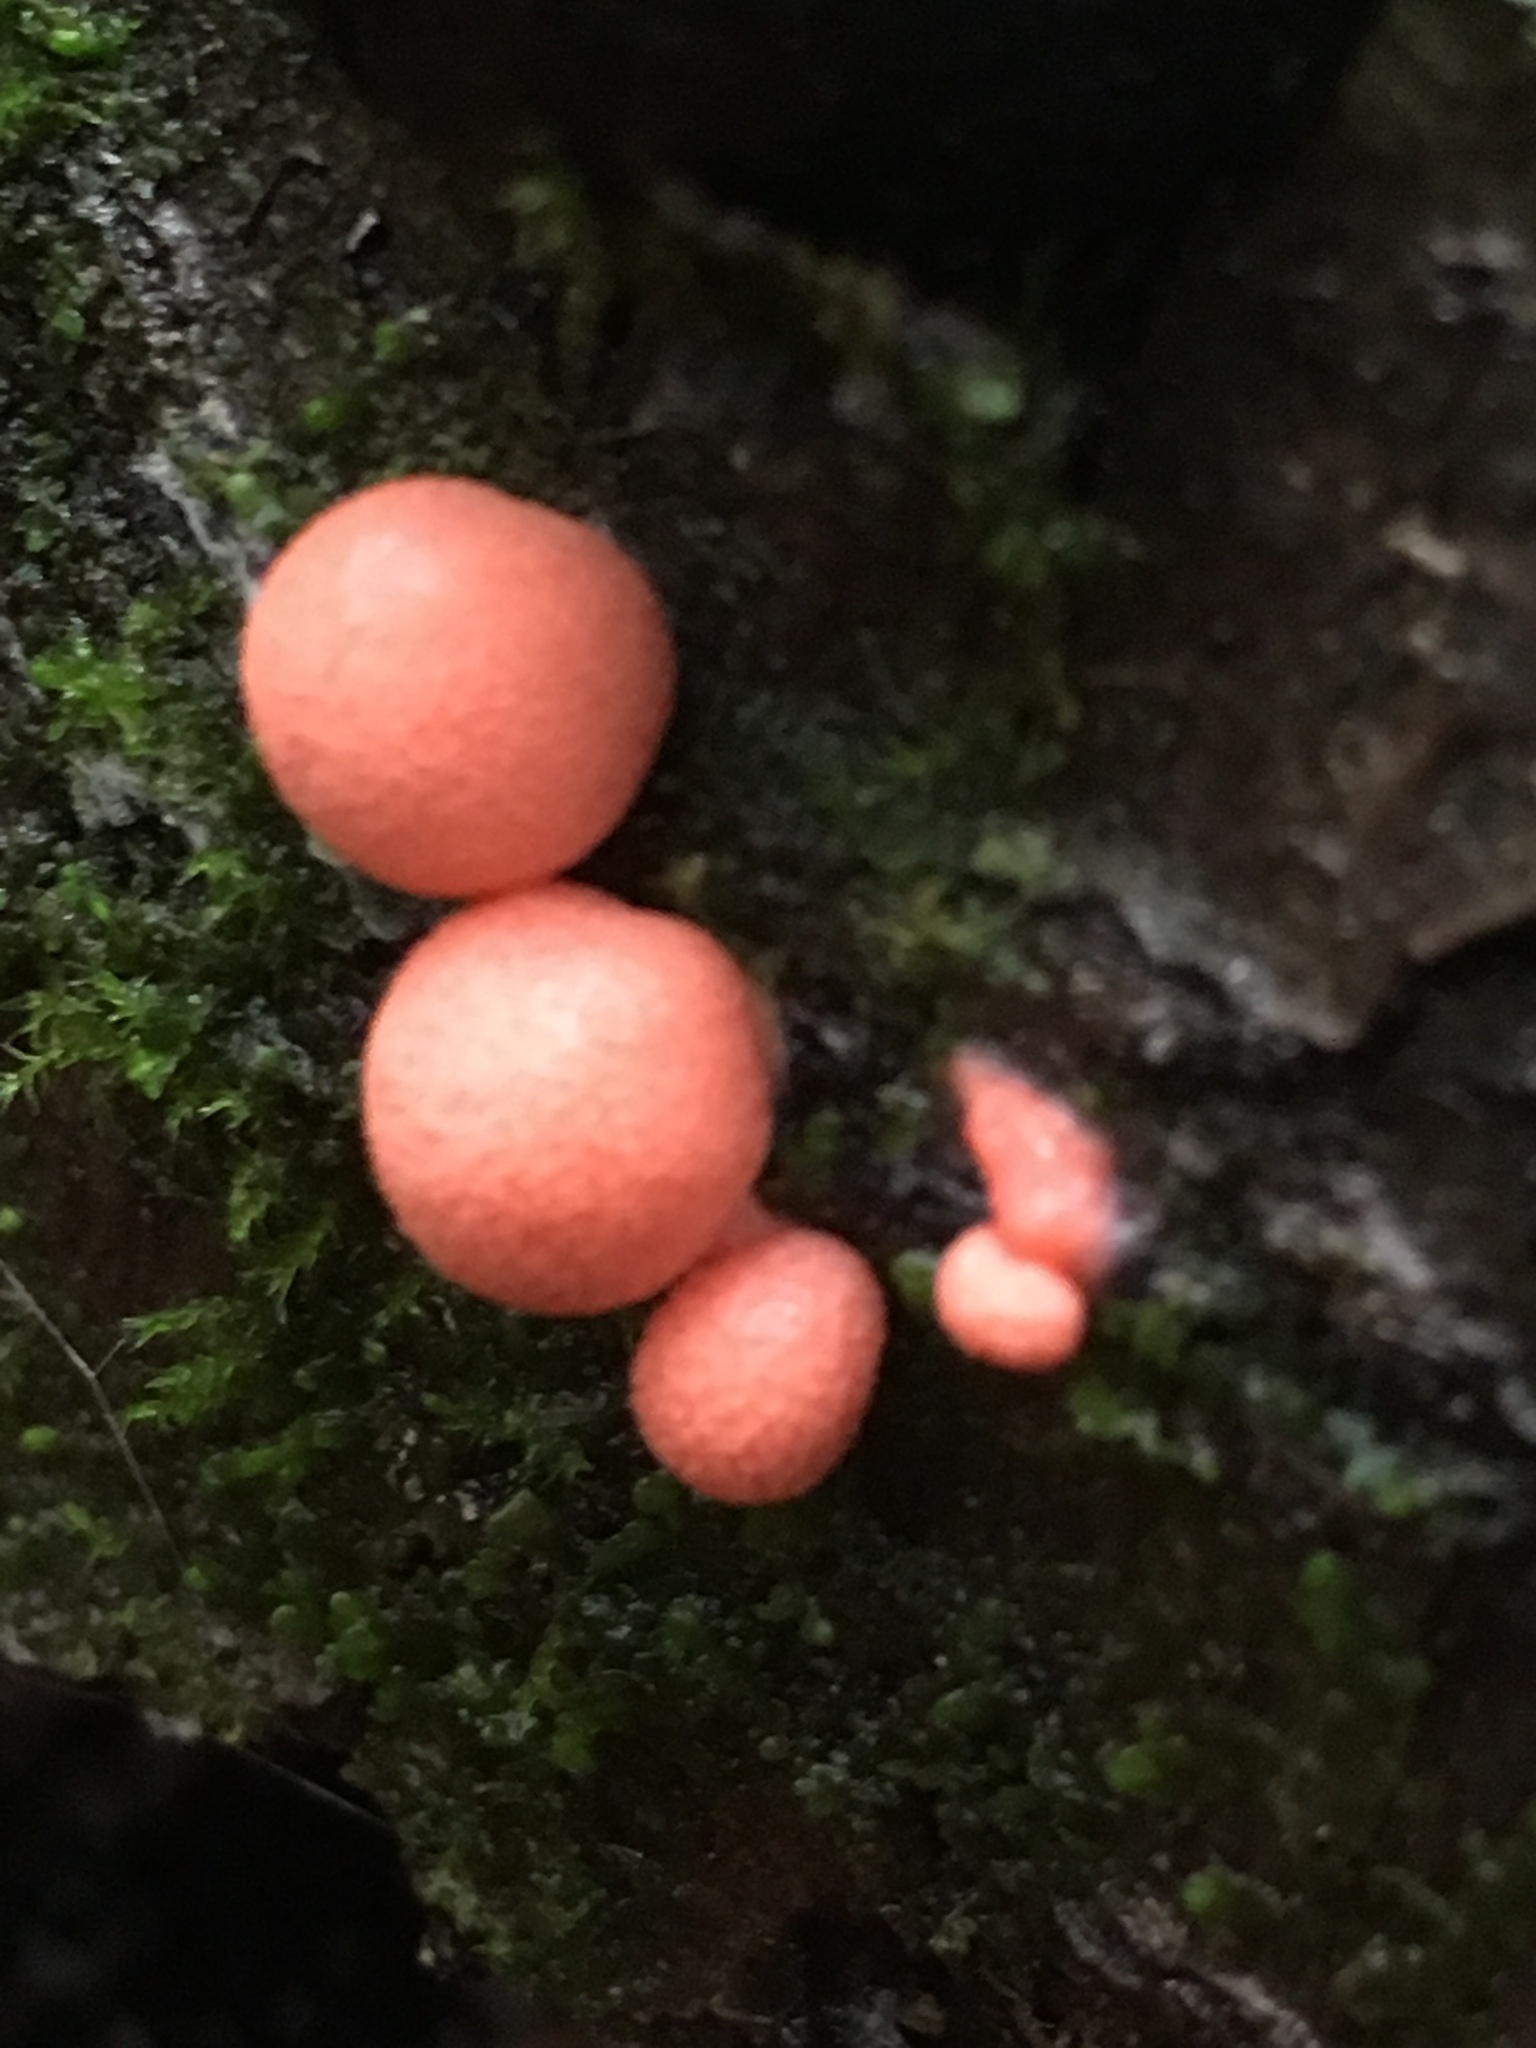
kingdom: Protozoa
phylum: Mycetozoa
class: Myxomycetes
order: Cribrariales
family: Tubiferaceae
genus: Lycogala
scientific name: Lycogala epidendrum
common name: Wolf's milk
